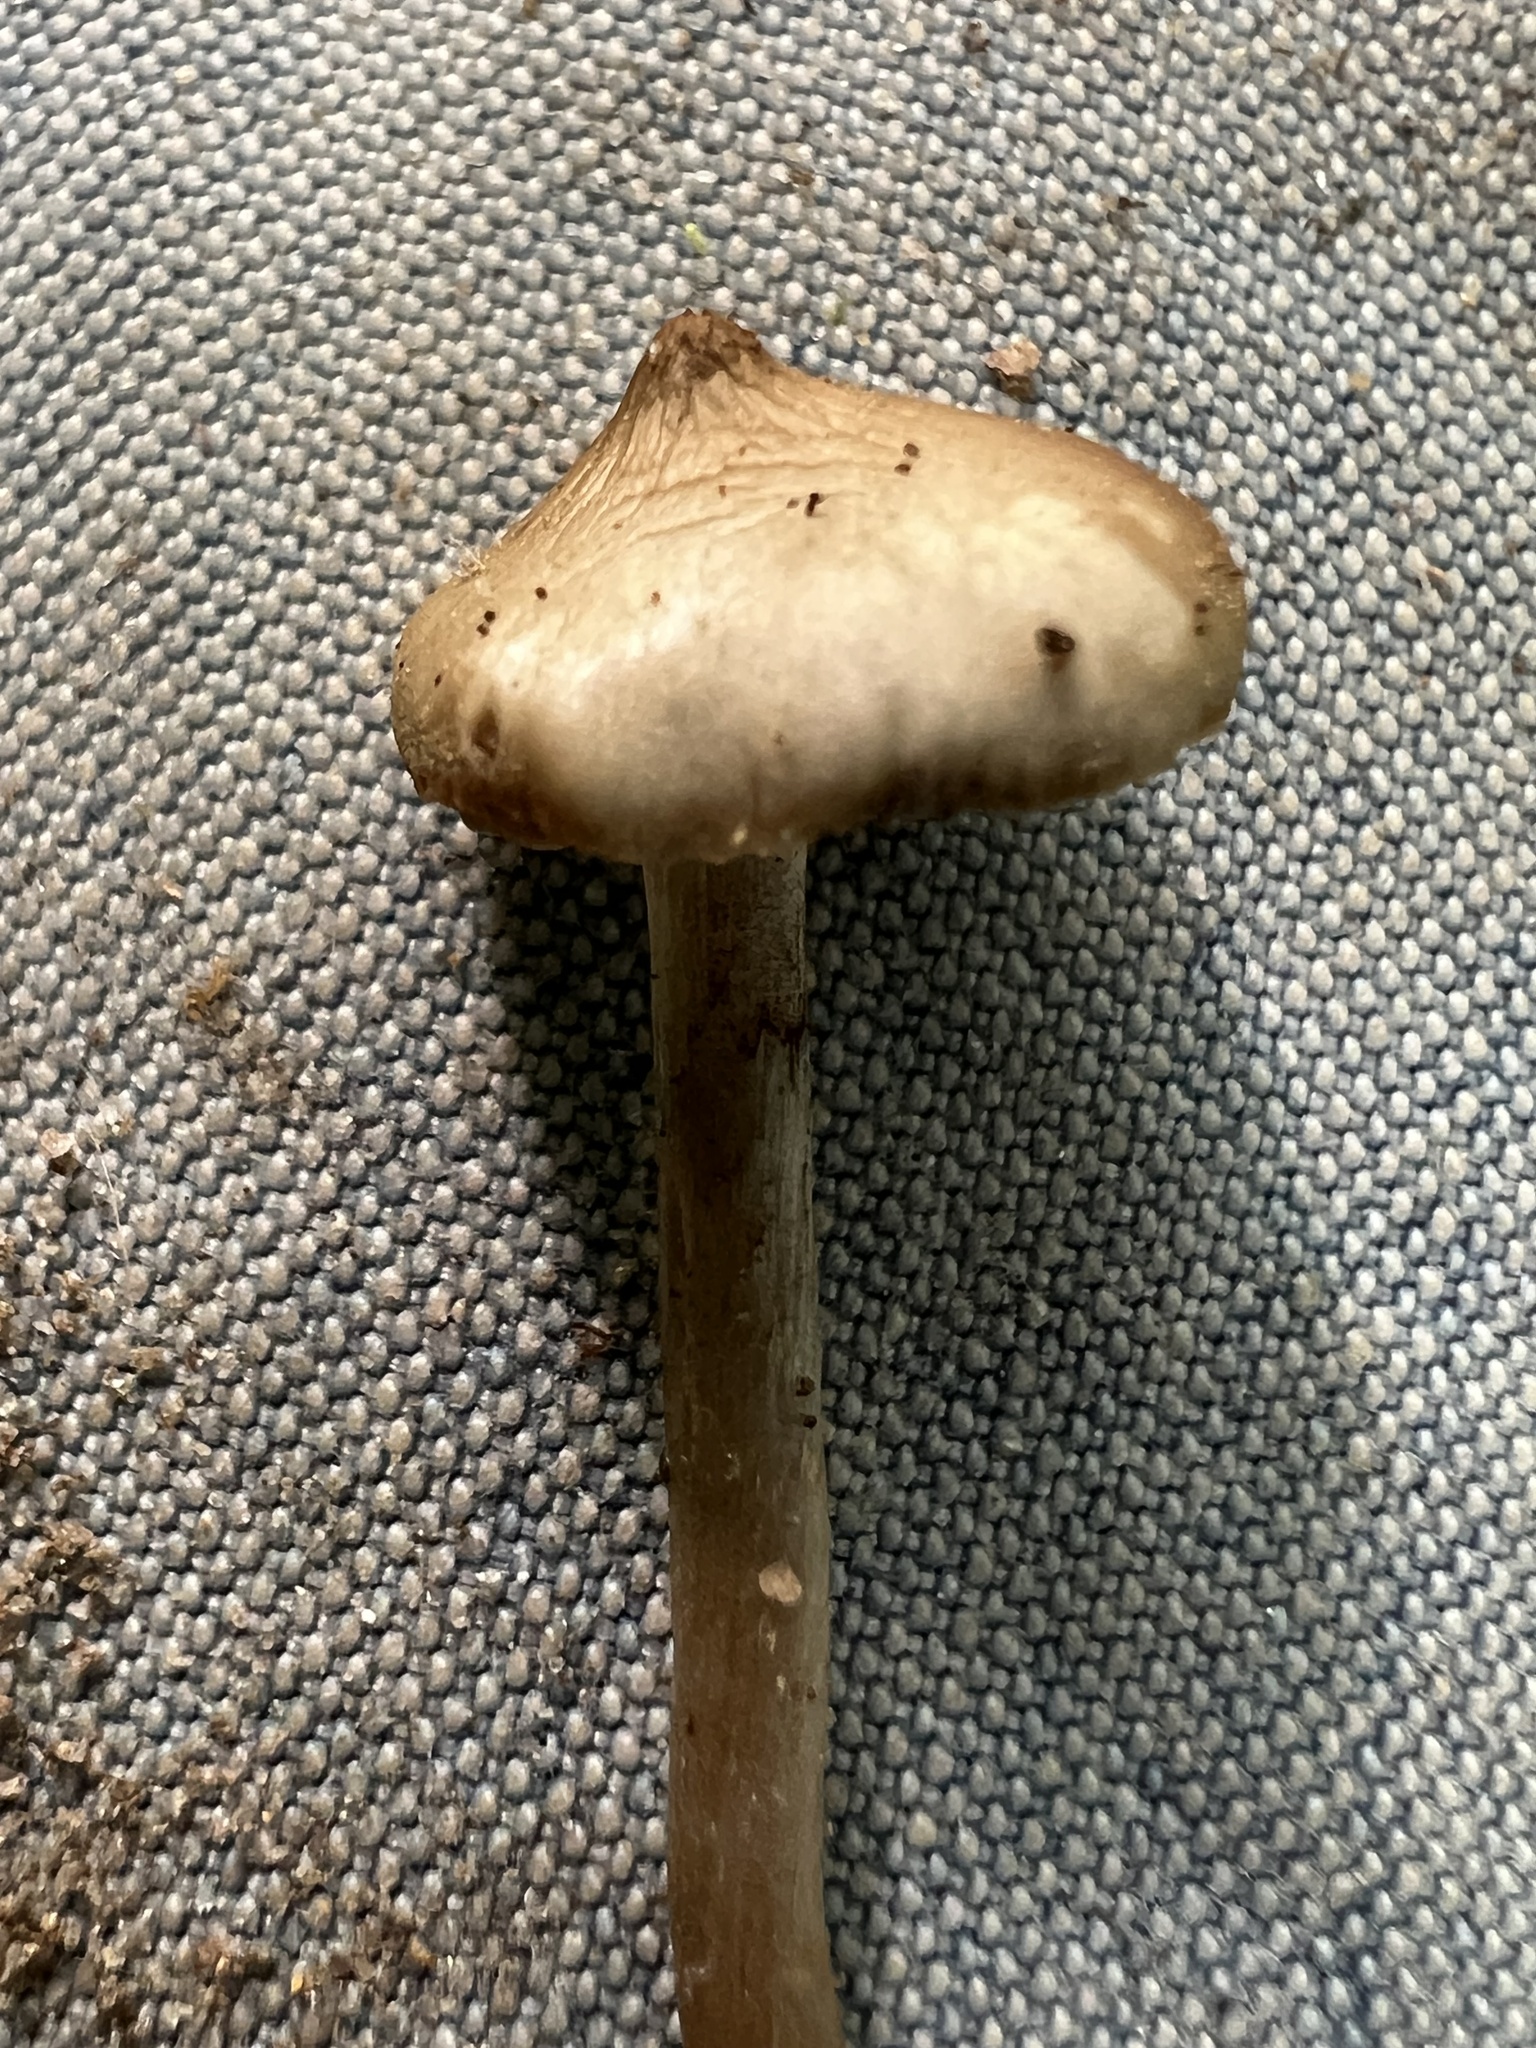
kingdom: Fungi
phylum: Basidiomycota
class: Agaricomycetes
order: Agaricales
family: Hymenogastraceae
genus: Psilocybe
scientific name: Psilocybe ovoideocystidiata
